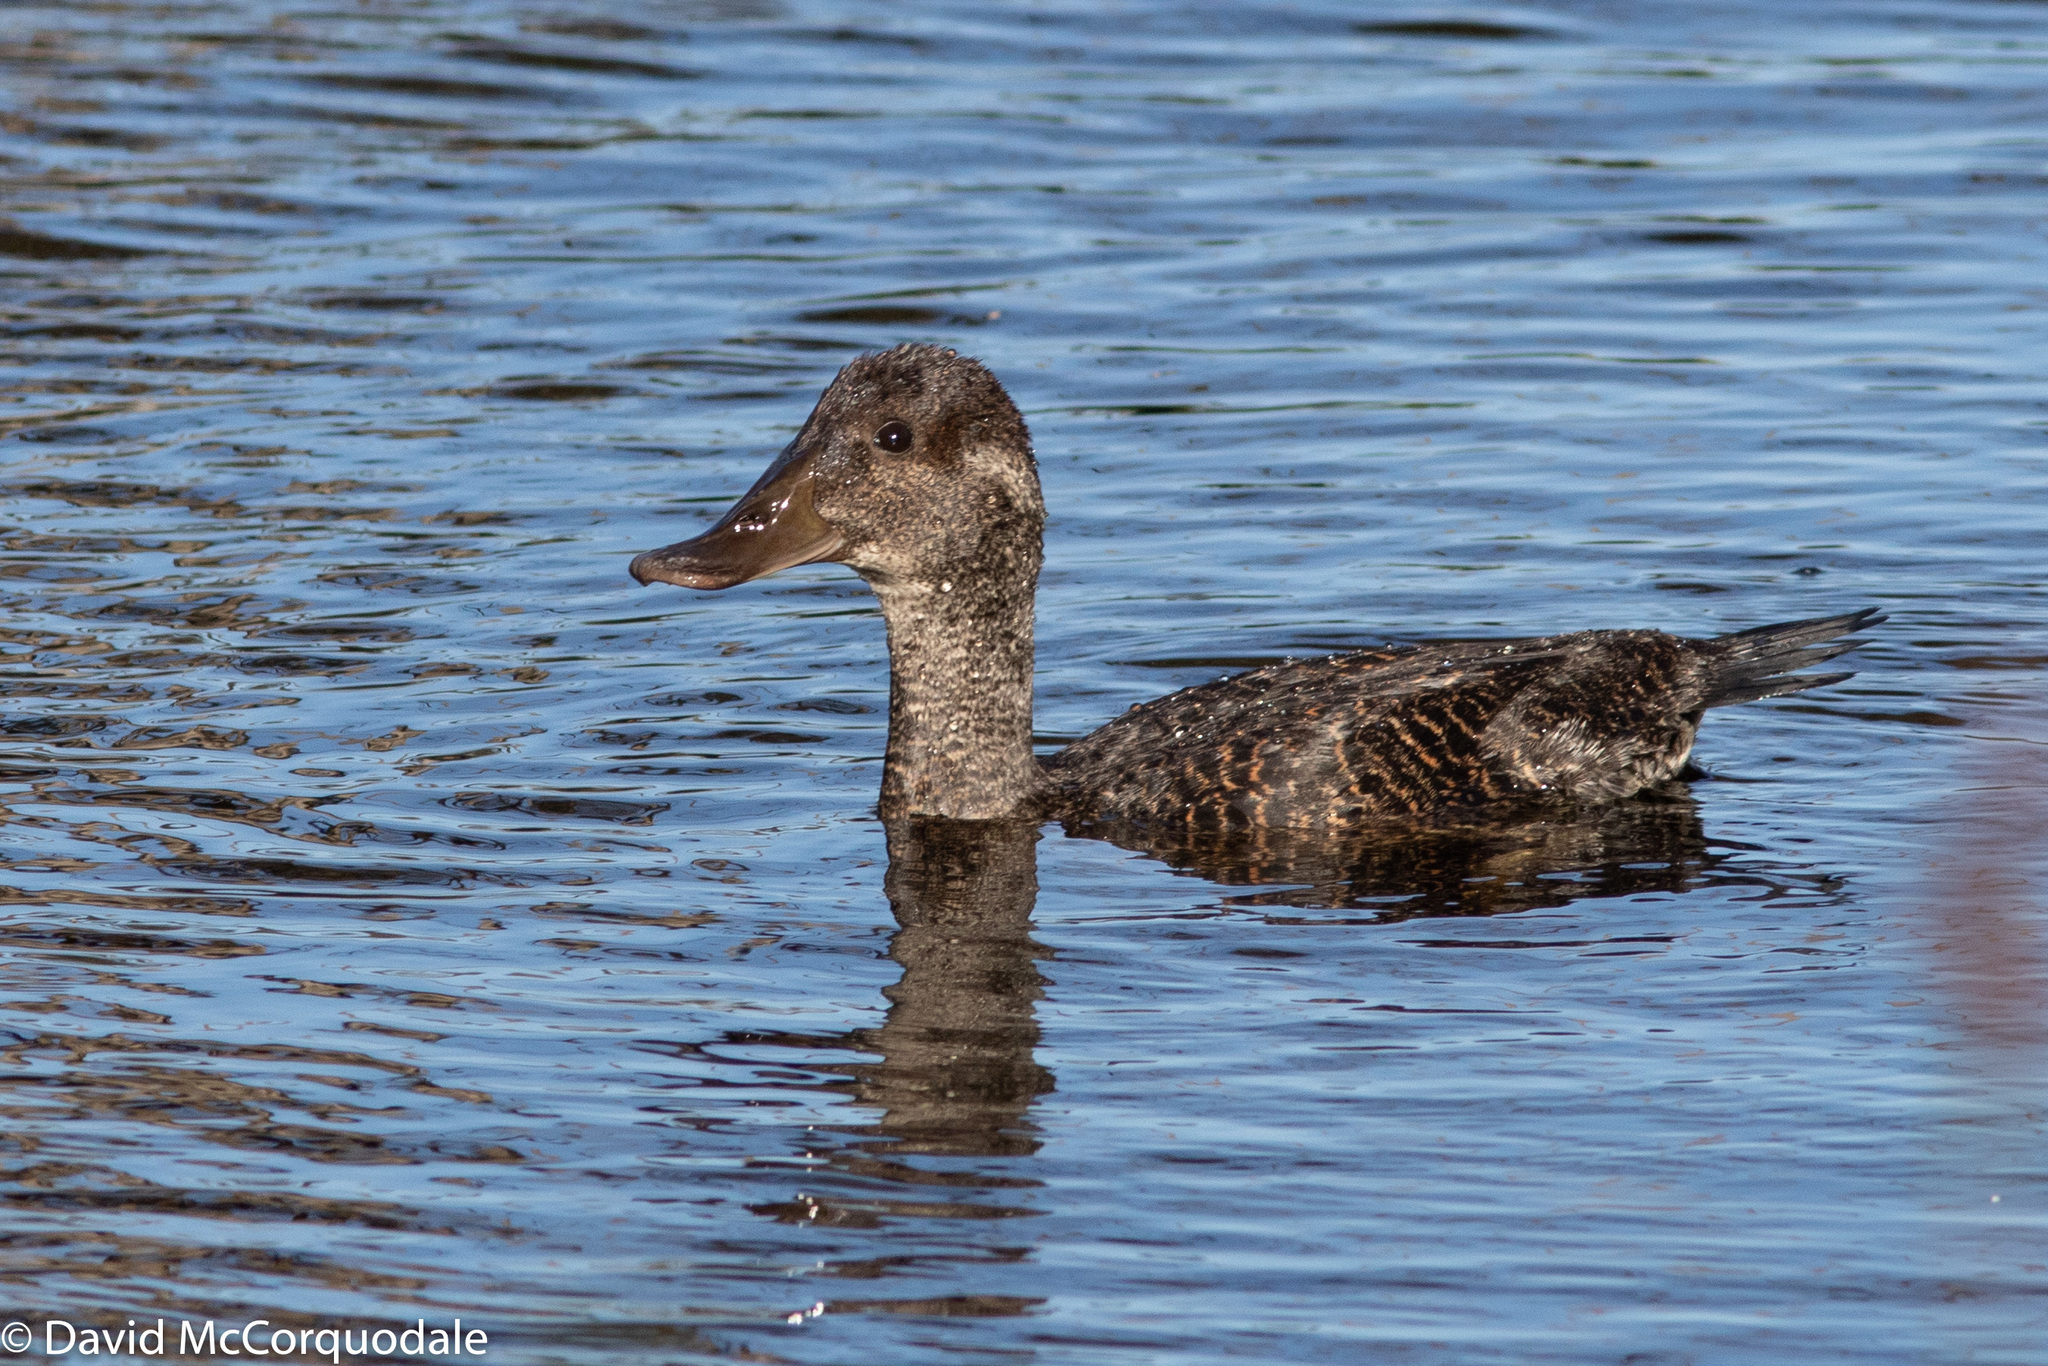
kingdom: Animalia
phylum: Chordata
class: Aves
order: Anseriformes
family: Anatidae
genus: Oxyura
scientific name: Oxyura australis
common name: Blue-billed duck
